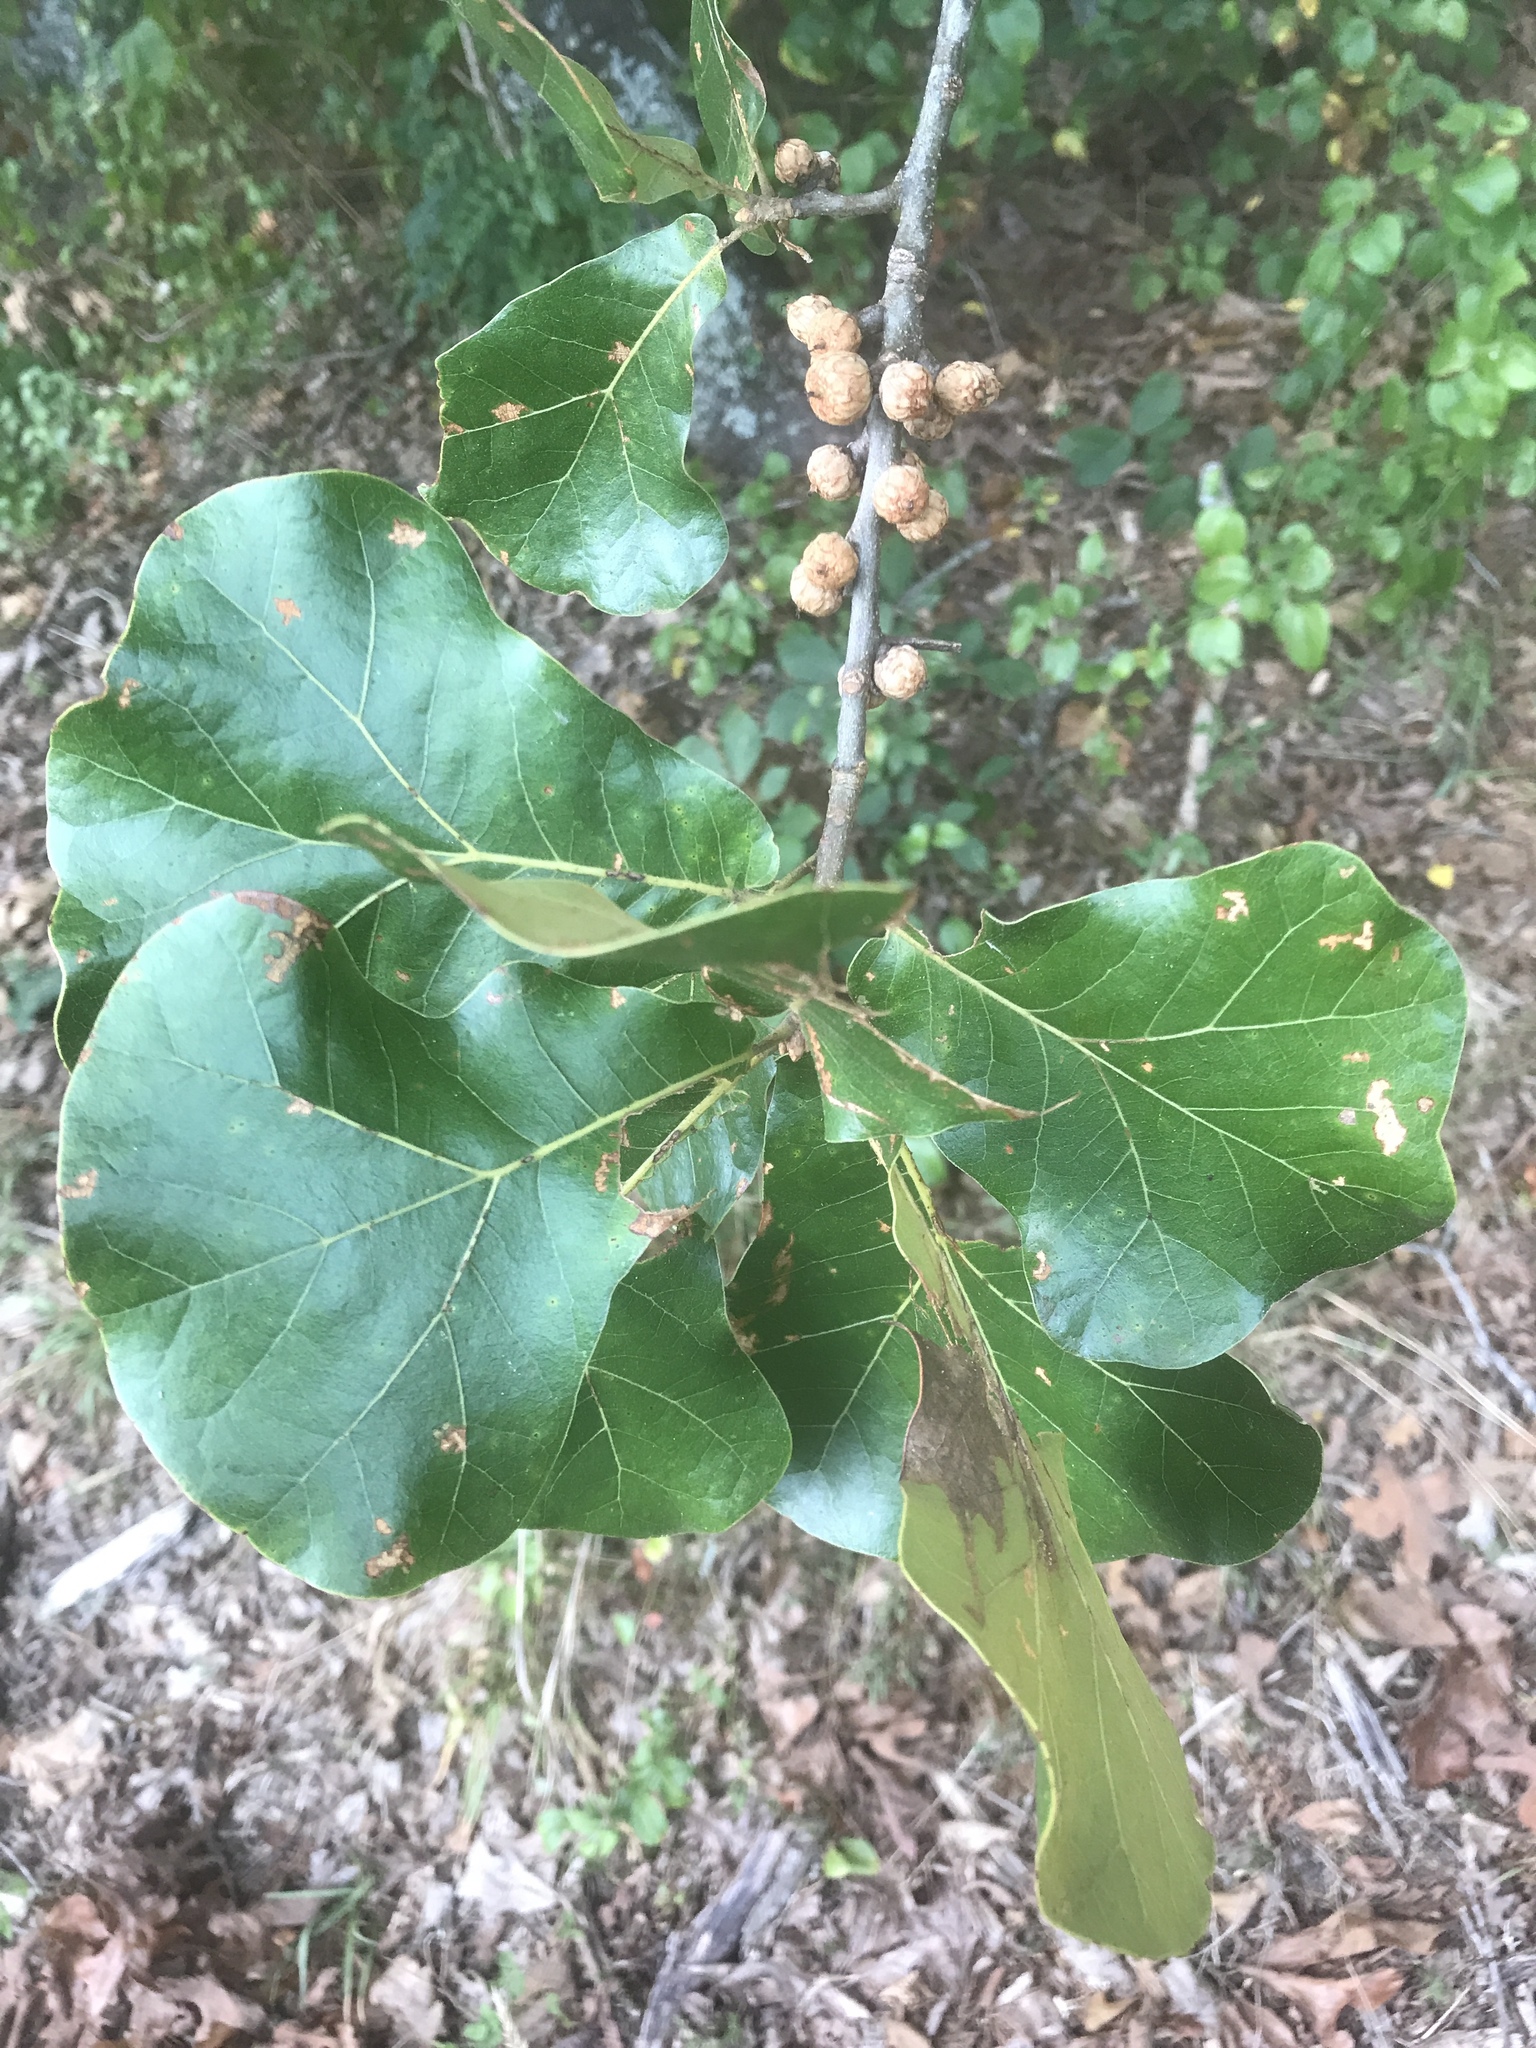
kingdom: Plantae
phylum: Tracheophyta
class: Magnoliopsida
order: Fagales
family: Fagaceae
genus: Quercus
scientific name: Quercus marilandica
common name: Blackjack oak
